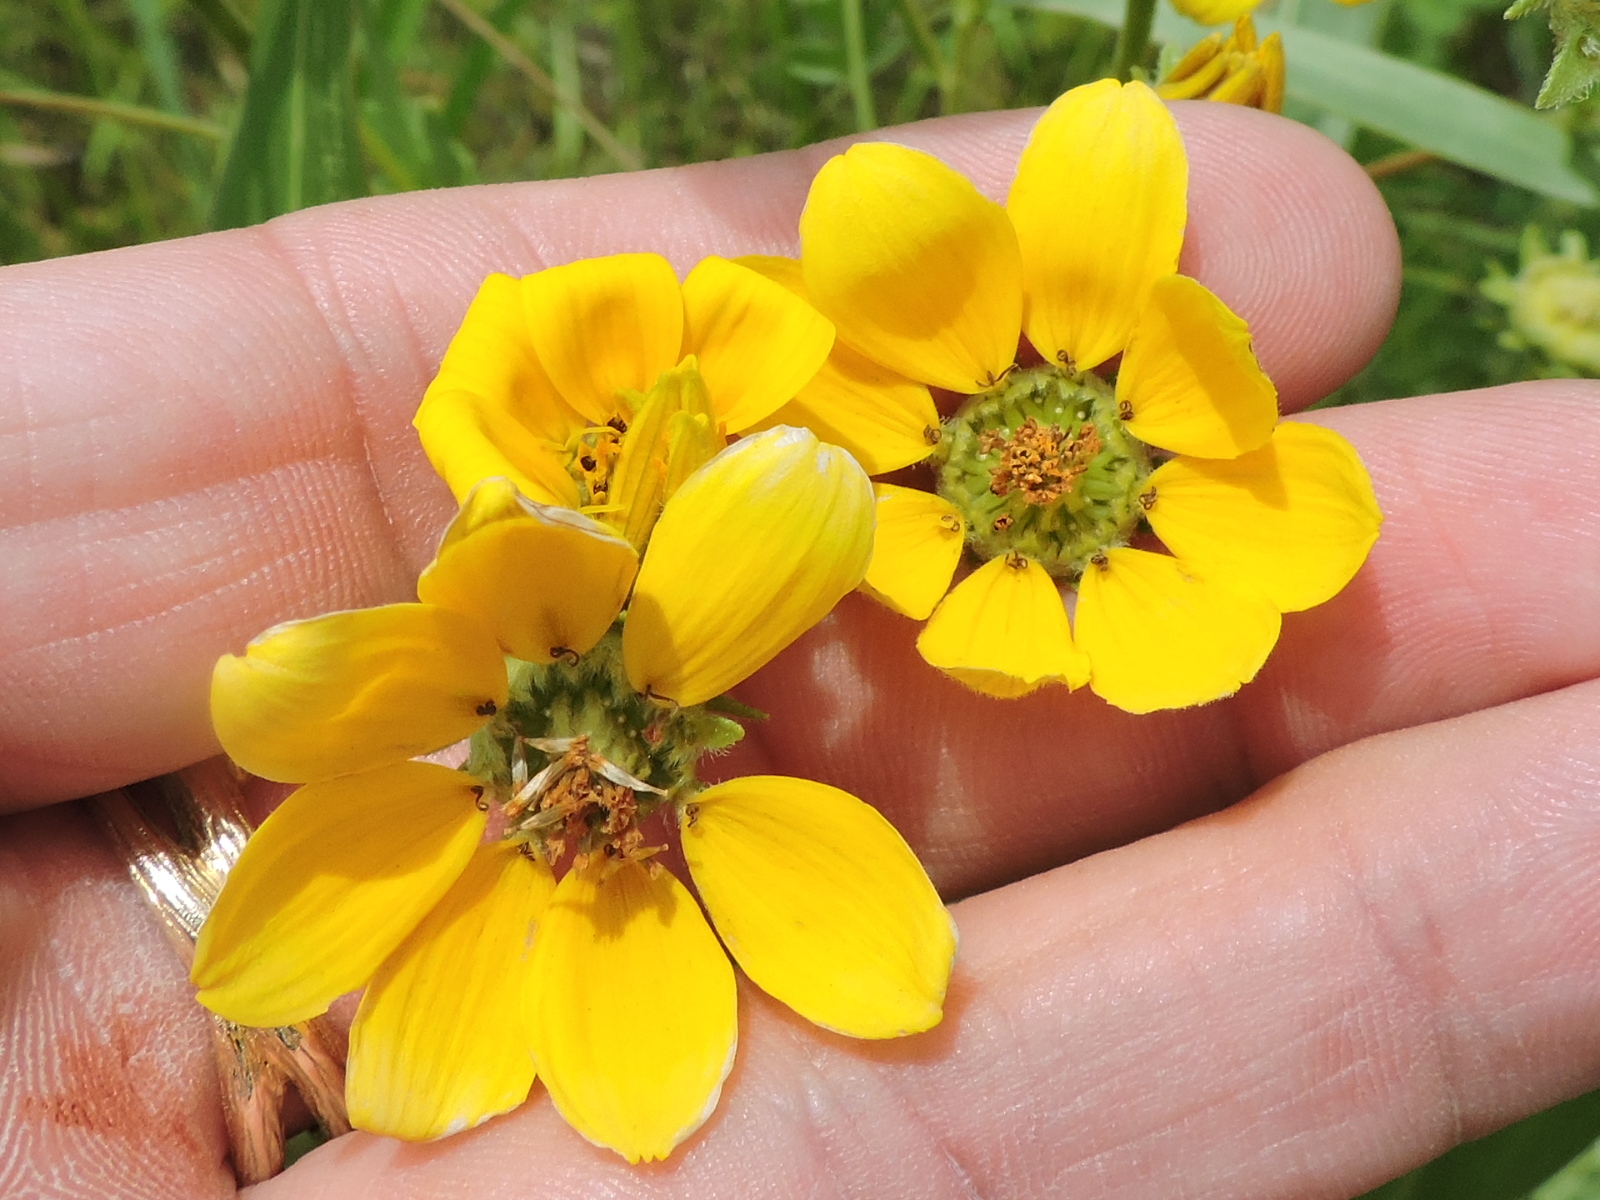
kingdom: Plantae
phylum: Tracheophyta
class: Magnoliopsida
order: Asterales
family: Asteraceae
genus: Engelmannia
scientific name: Engelmannia peristenia
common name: Engelmann's daisy
